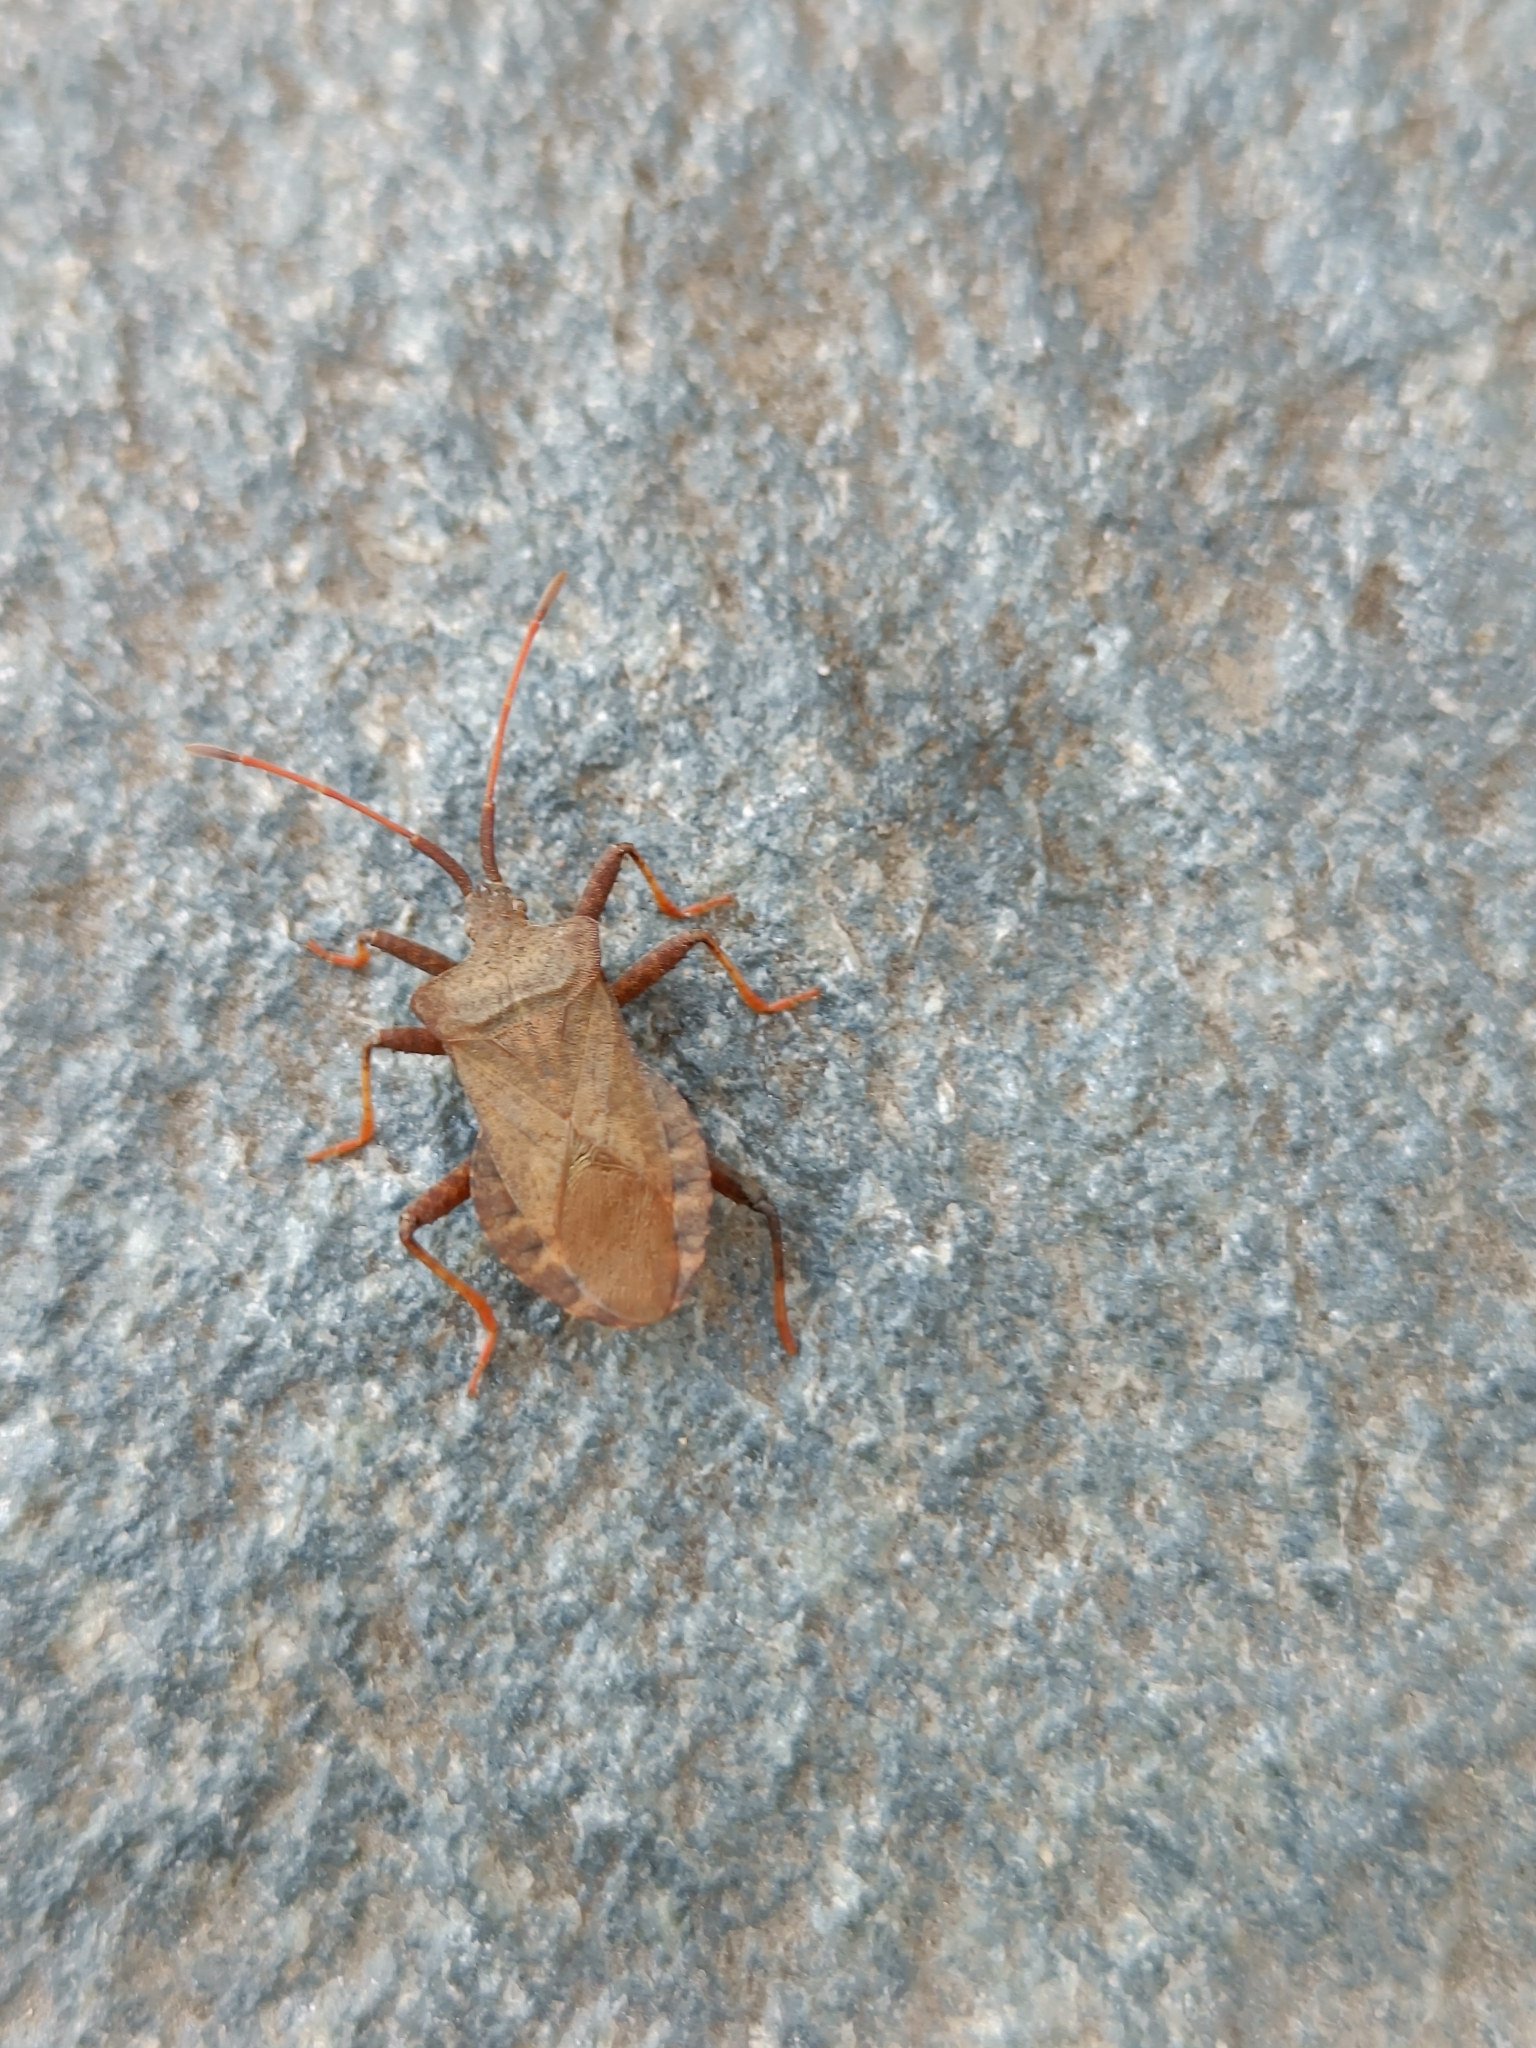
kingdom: Animalia
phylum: Arthropoda
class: Insecta
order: Hemiptera
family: Coreidae
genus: Coreus
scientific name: Coreus marginatus
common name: Dock bug
